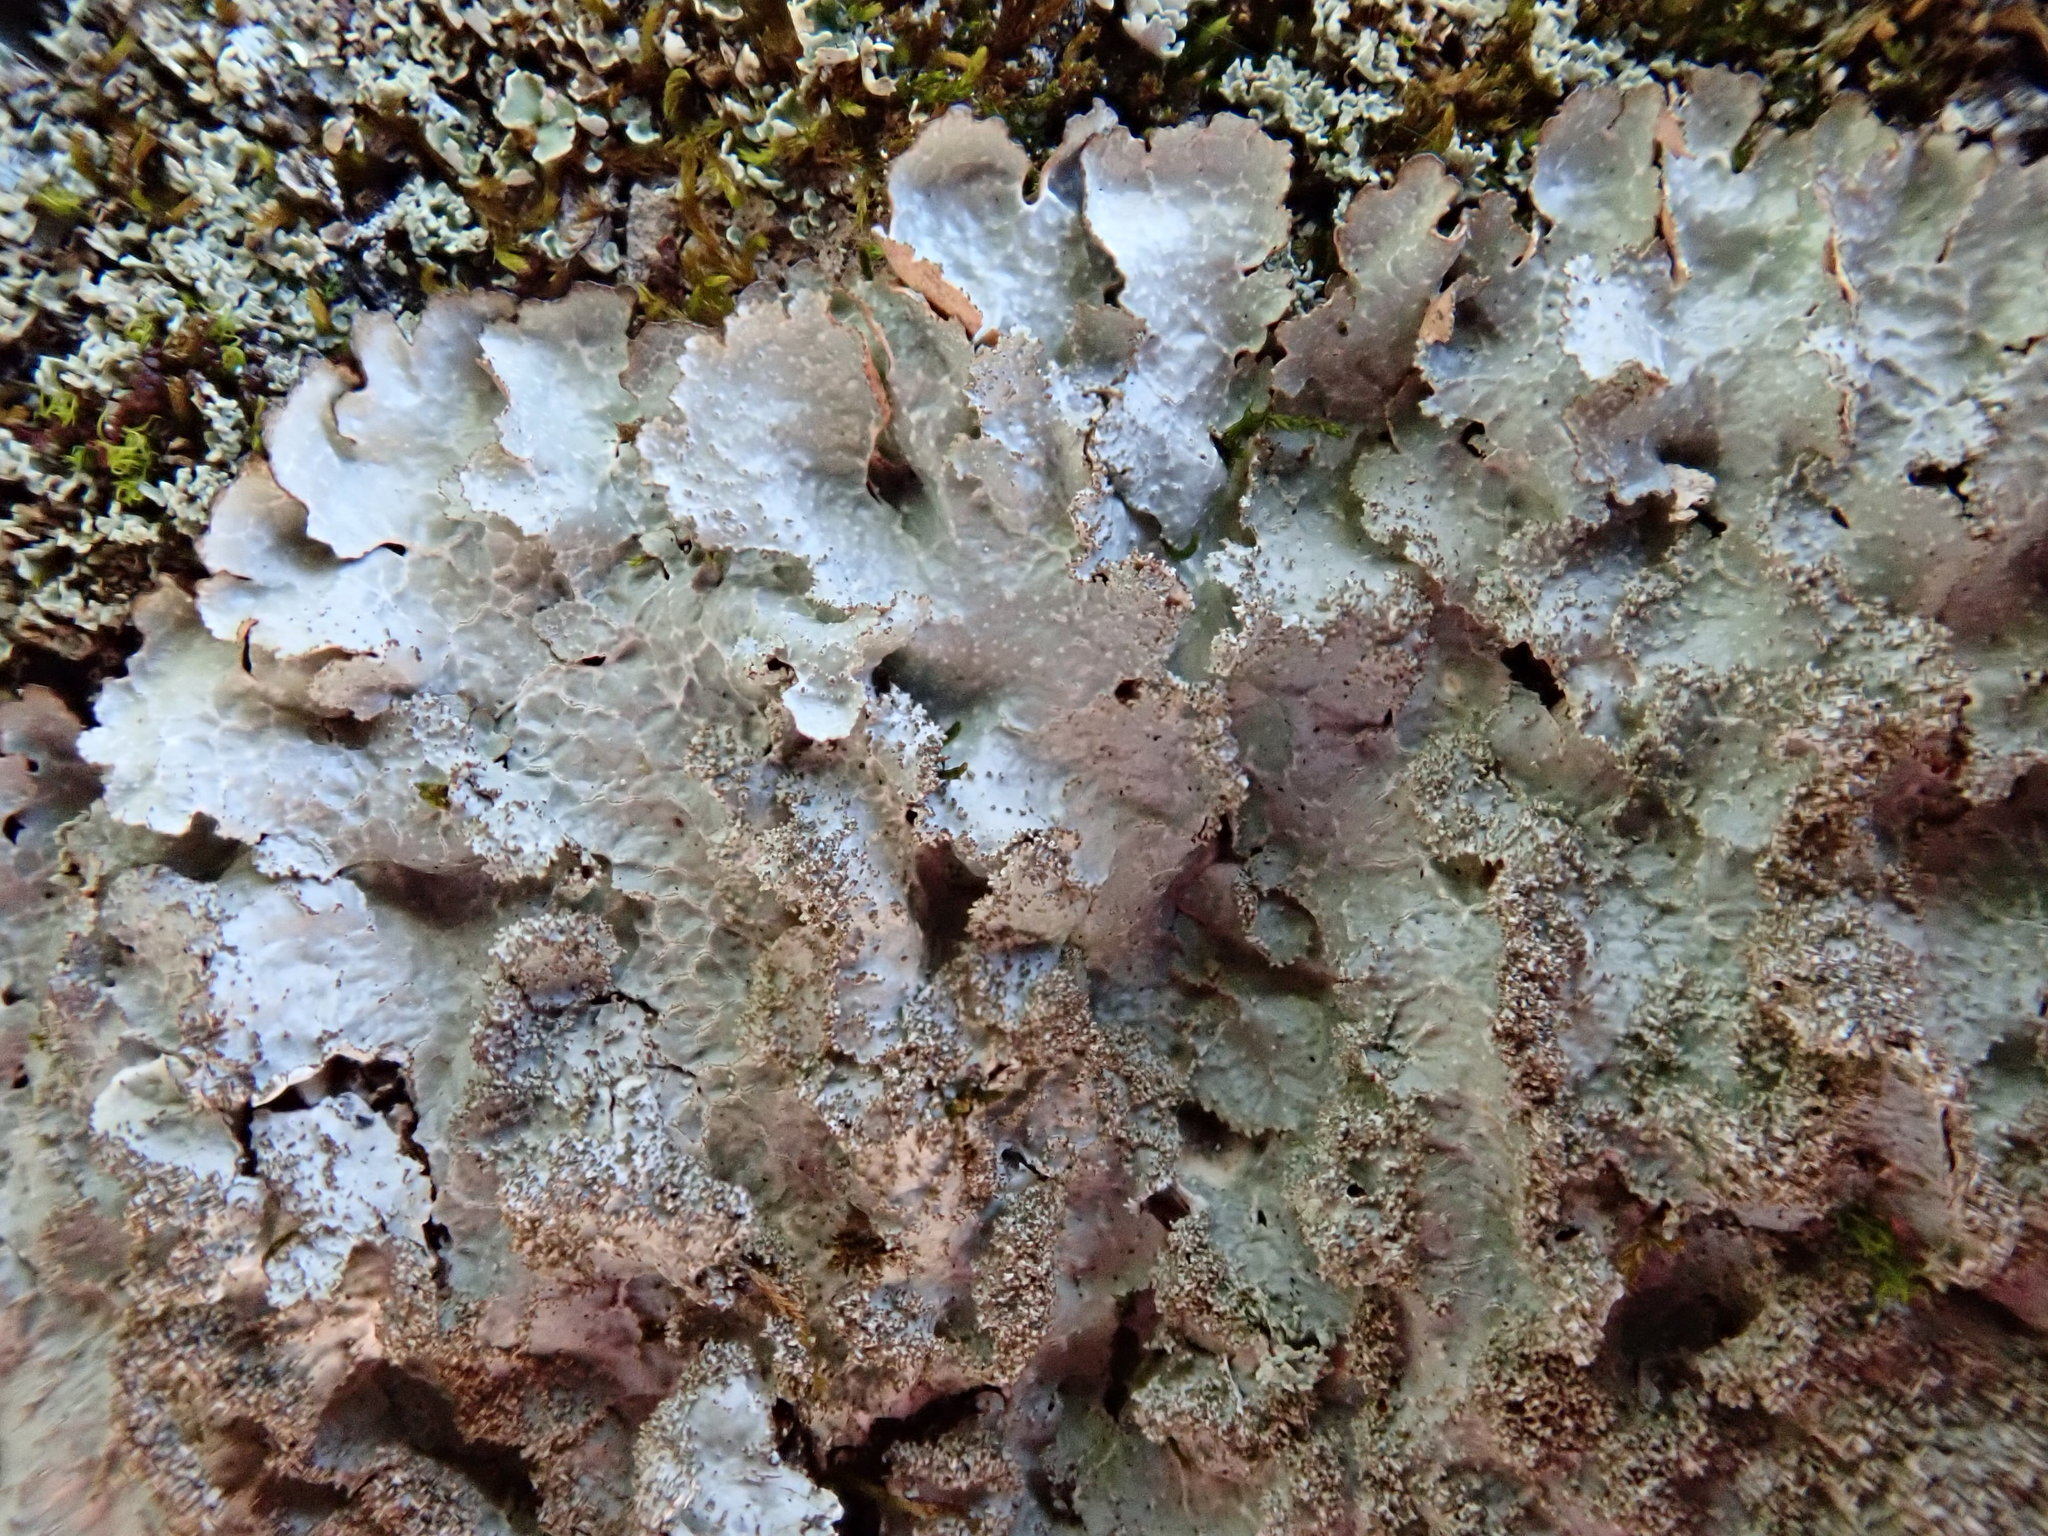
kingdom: Fungi
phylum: Ascomycota
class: Lecanoromycetes
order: Lecanorales
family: Parmeliaceae
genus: Punctelia
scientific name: Punctelia rudecta
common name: Rough speckled shield lichen
